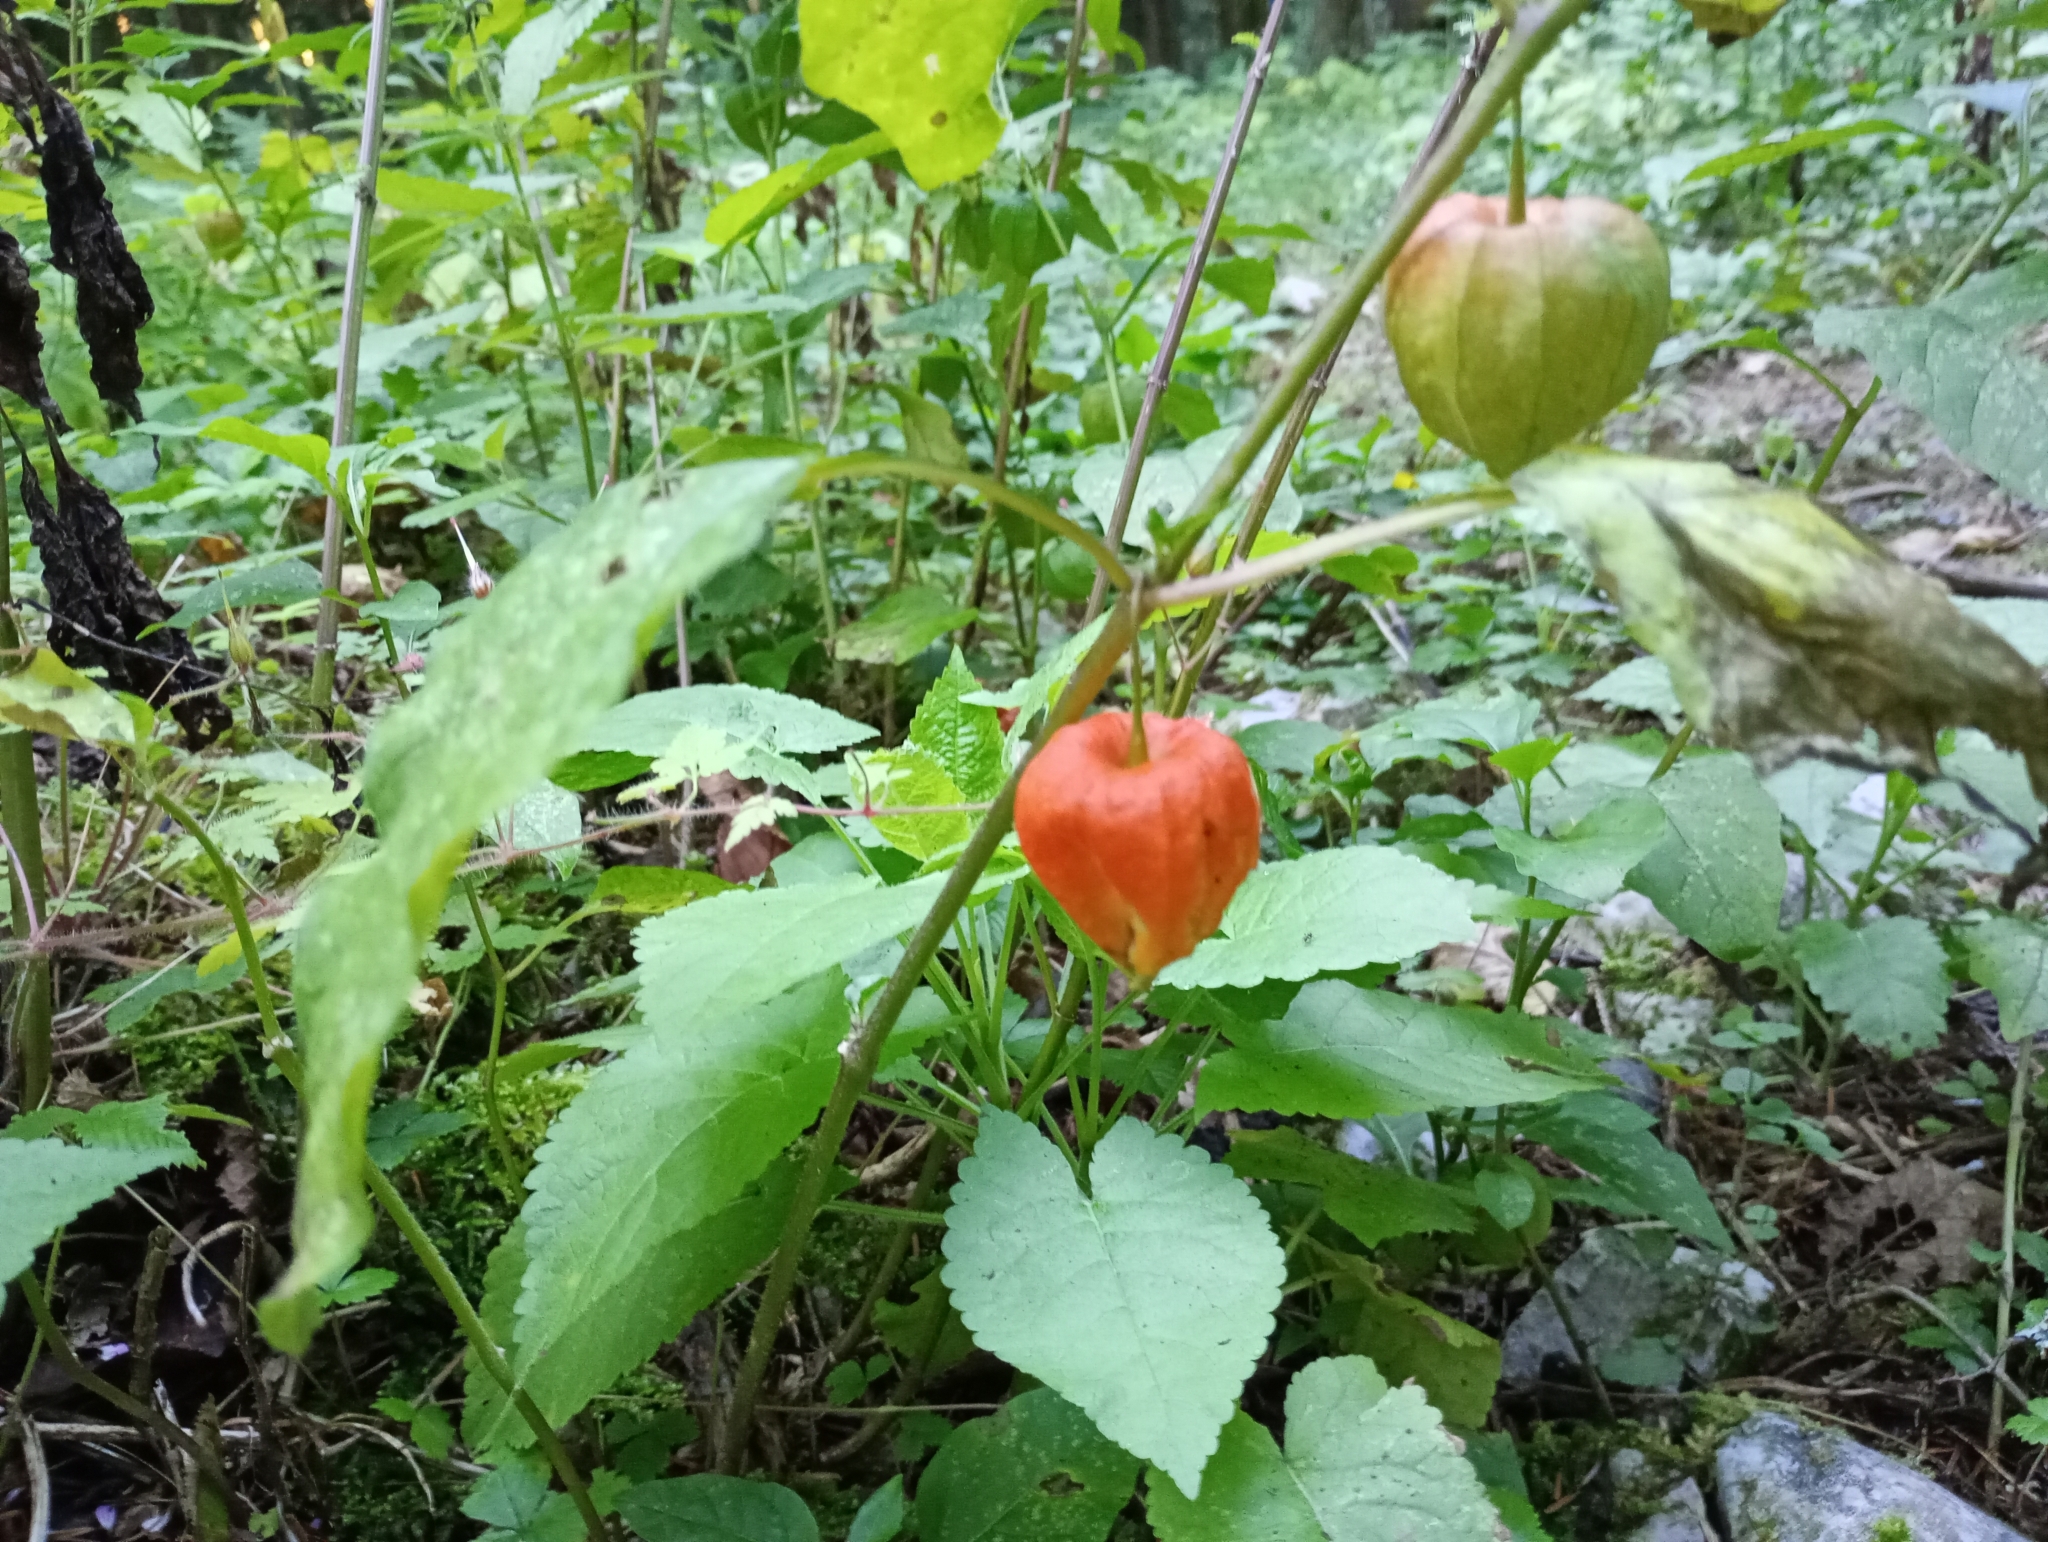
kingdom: Plantae
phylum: Tracheophyta
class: Magnoliopsida
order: Solanales
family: Solanaceae
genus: Alkekengi
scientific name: Alkekengi officinarum
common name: Japanese-lantern
